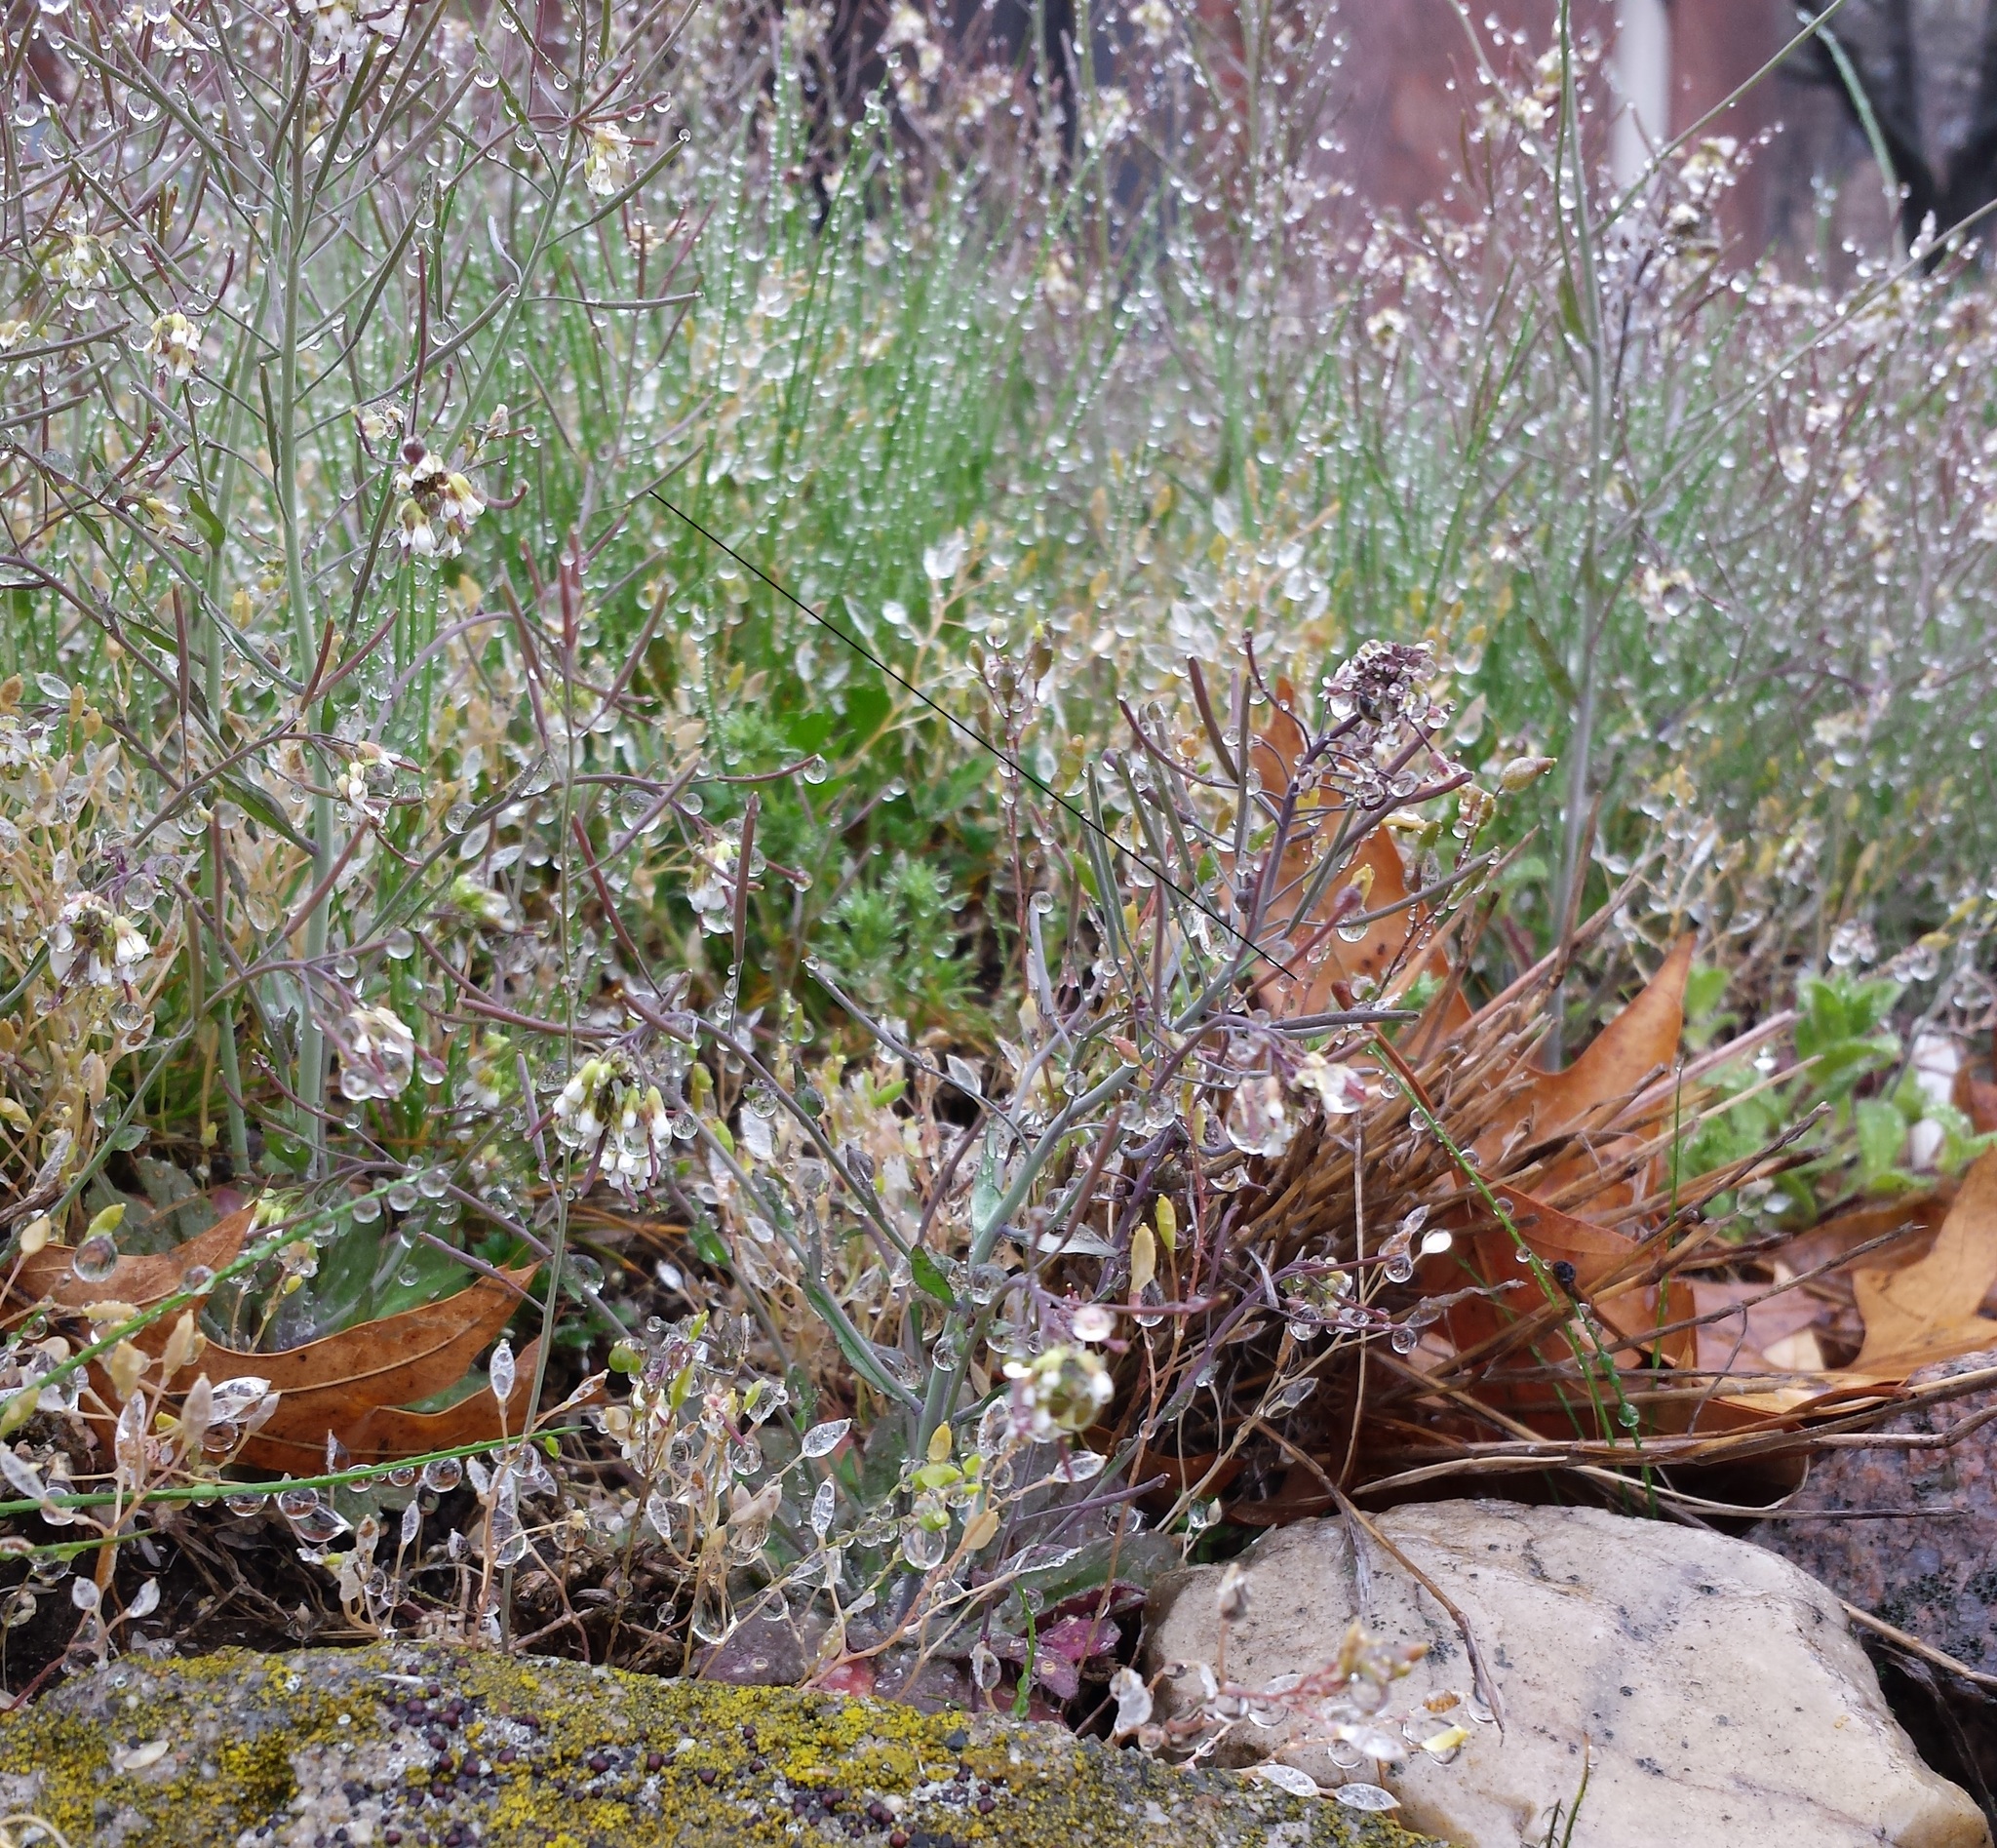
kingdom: Plantae
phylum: Tracheophyta
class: Magnoliopsida
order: Brassicales
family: Brassicaceae
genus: Arabidopsis
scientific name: Arabidopsis thaliana
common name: Thale cress
